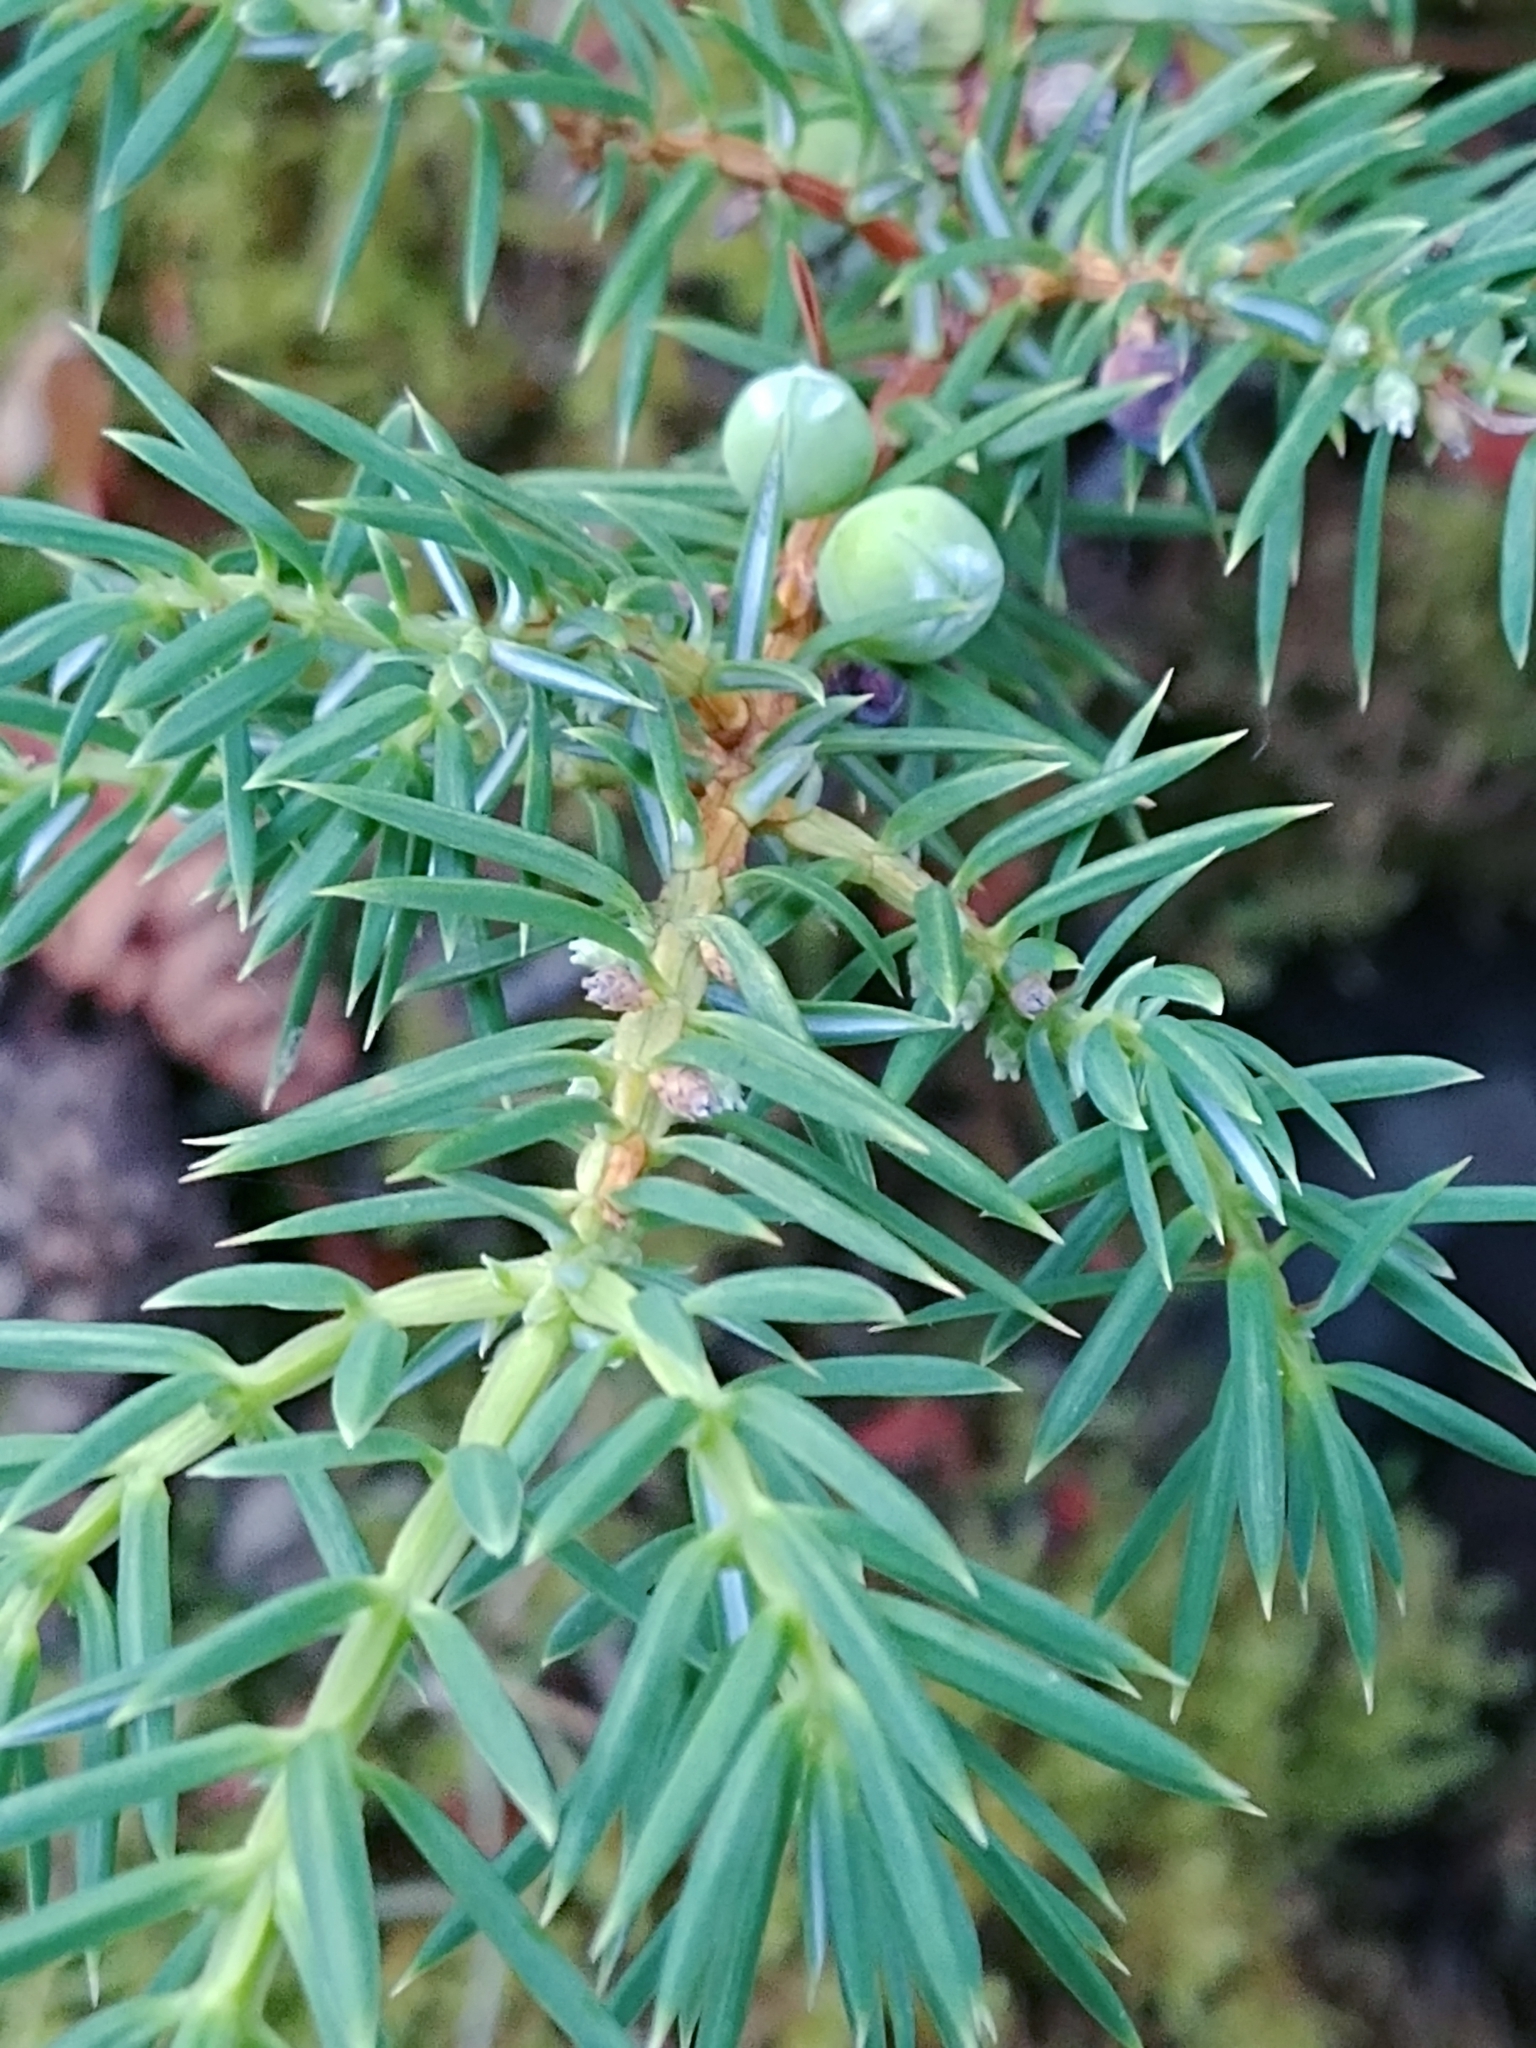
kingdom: Plantae
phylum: Tracheophyta
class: Pinopsida
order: Pinales
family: Cupressaceae
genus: Juniperus
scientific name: Juniperus communis
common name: Common juniper
